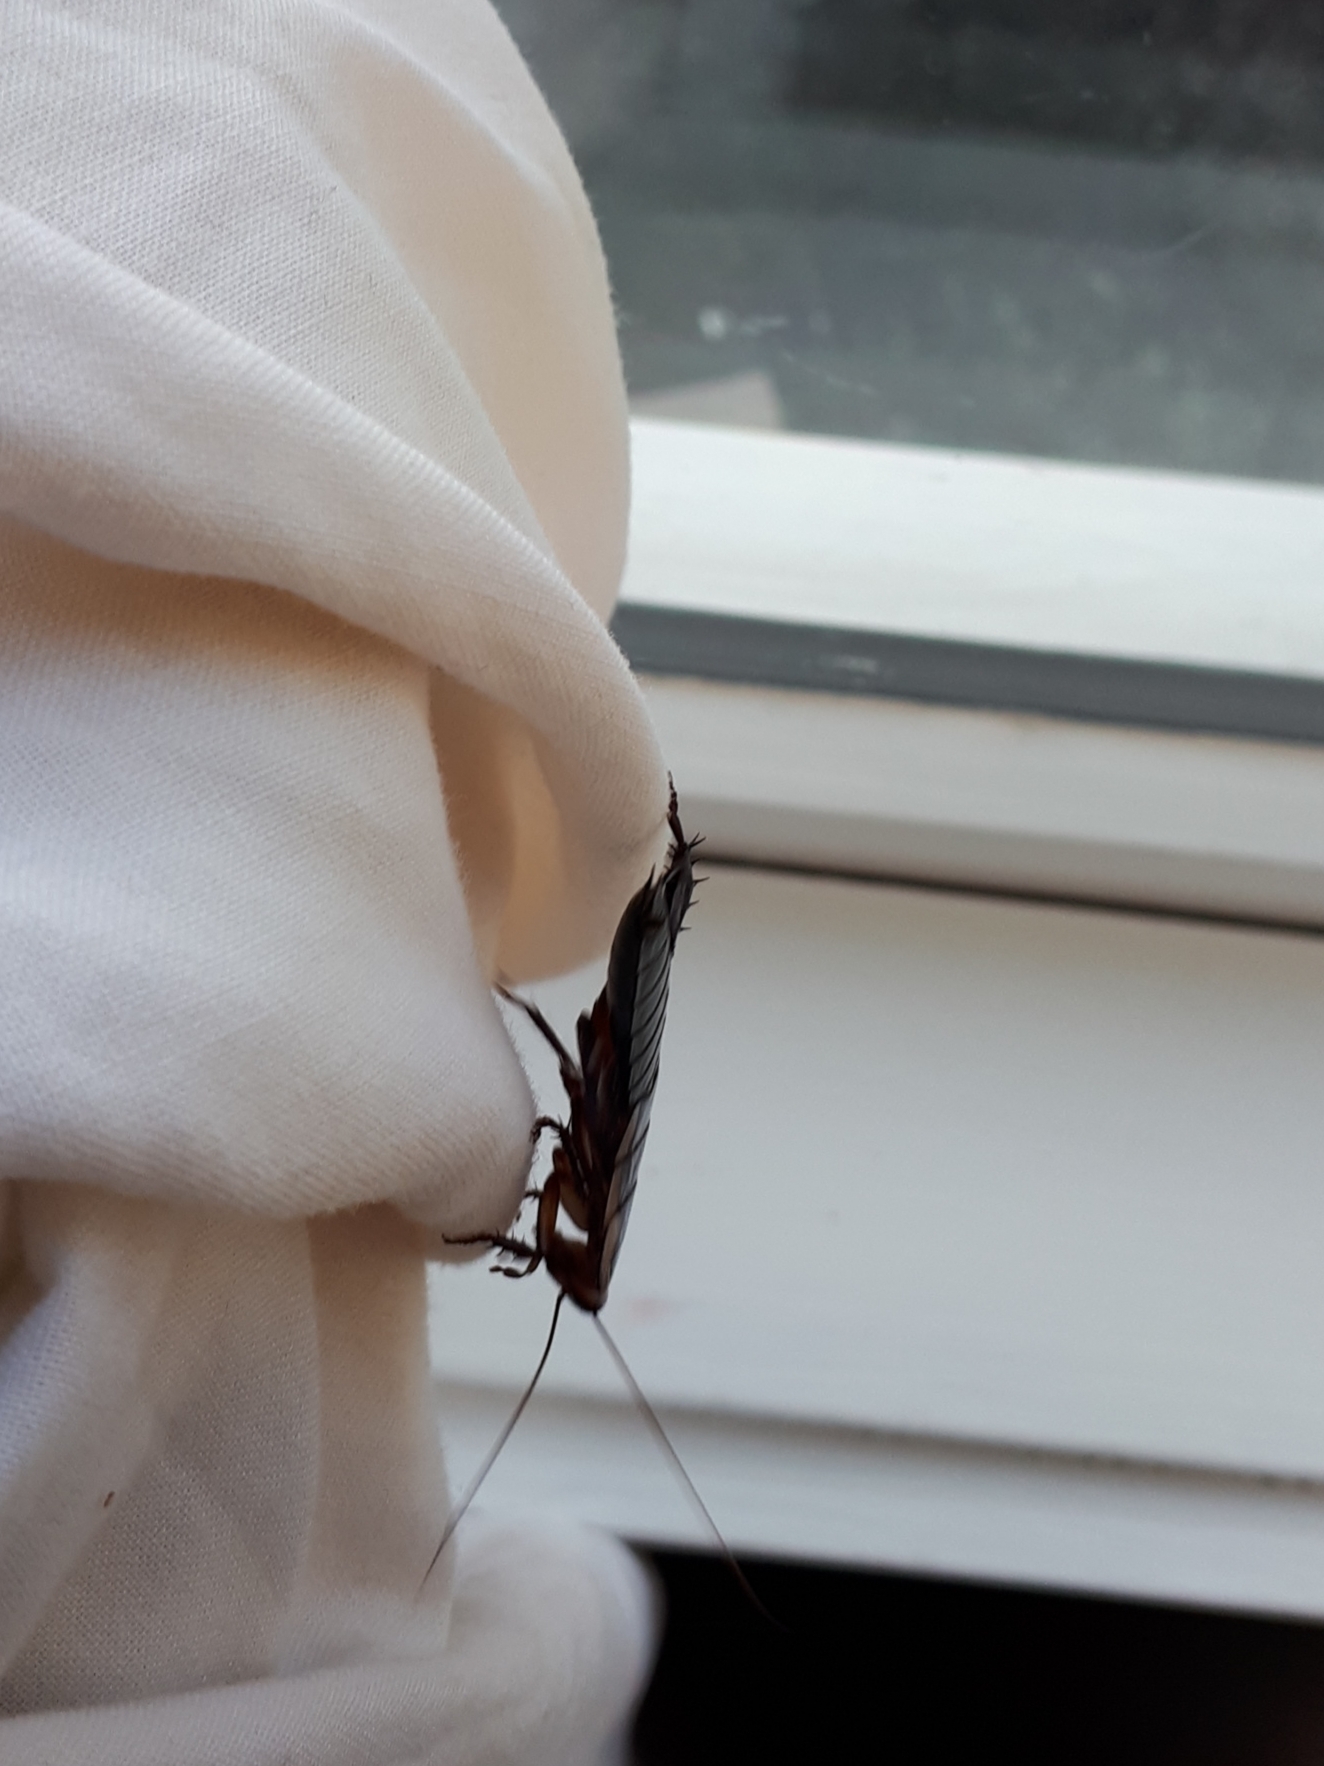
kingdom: Animalia
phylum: Arthropoda
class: Insecta
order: Blattodea
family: Blattidae
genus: Drymaplaneta
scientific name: Drymaplaneta semivitta
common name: Gisborne cockroach
